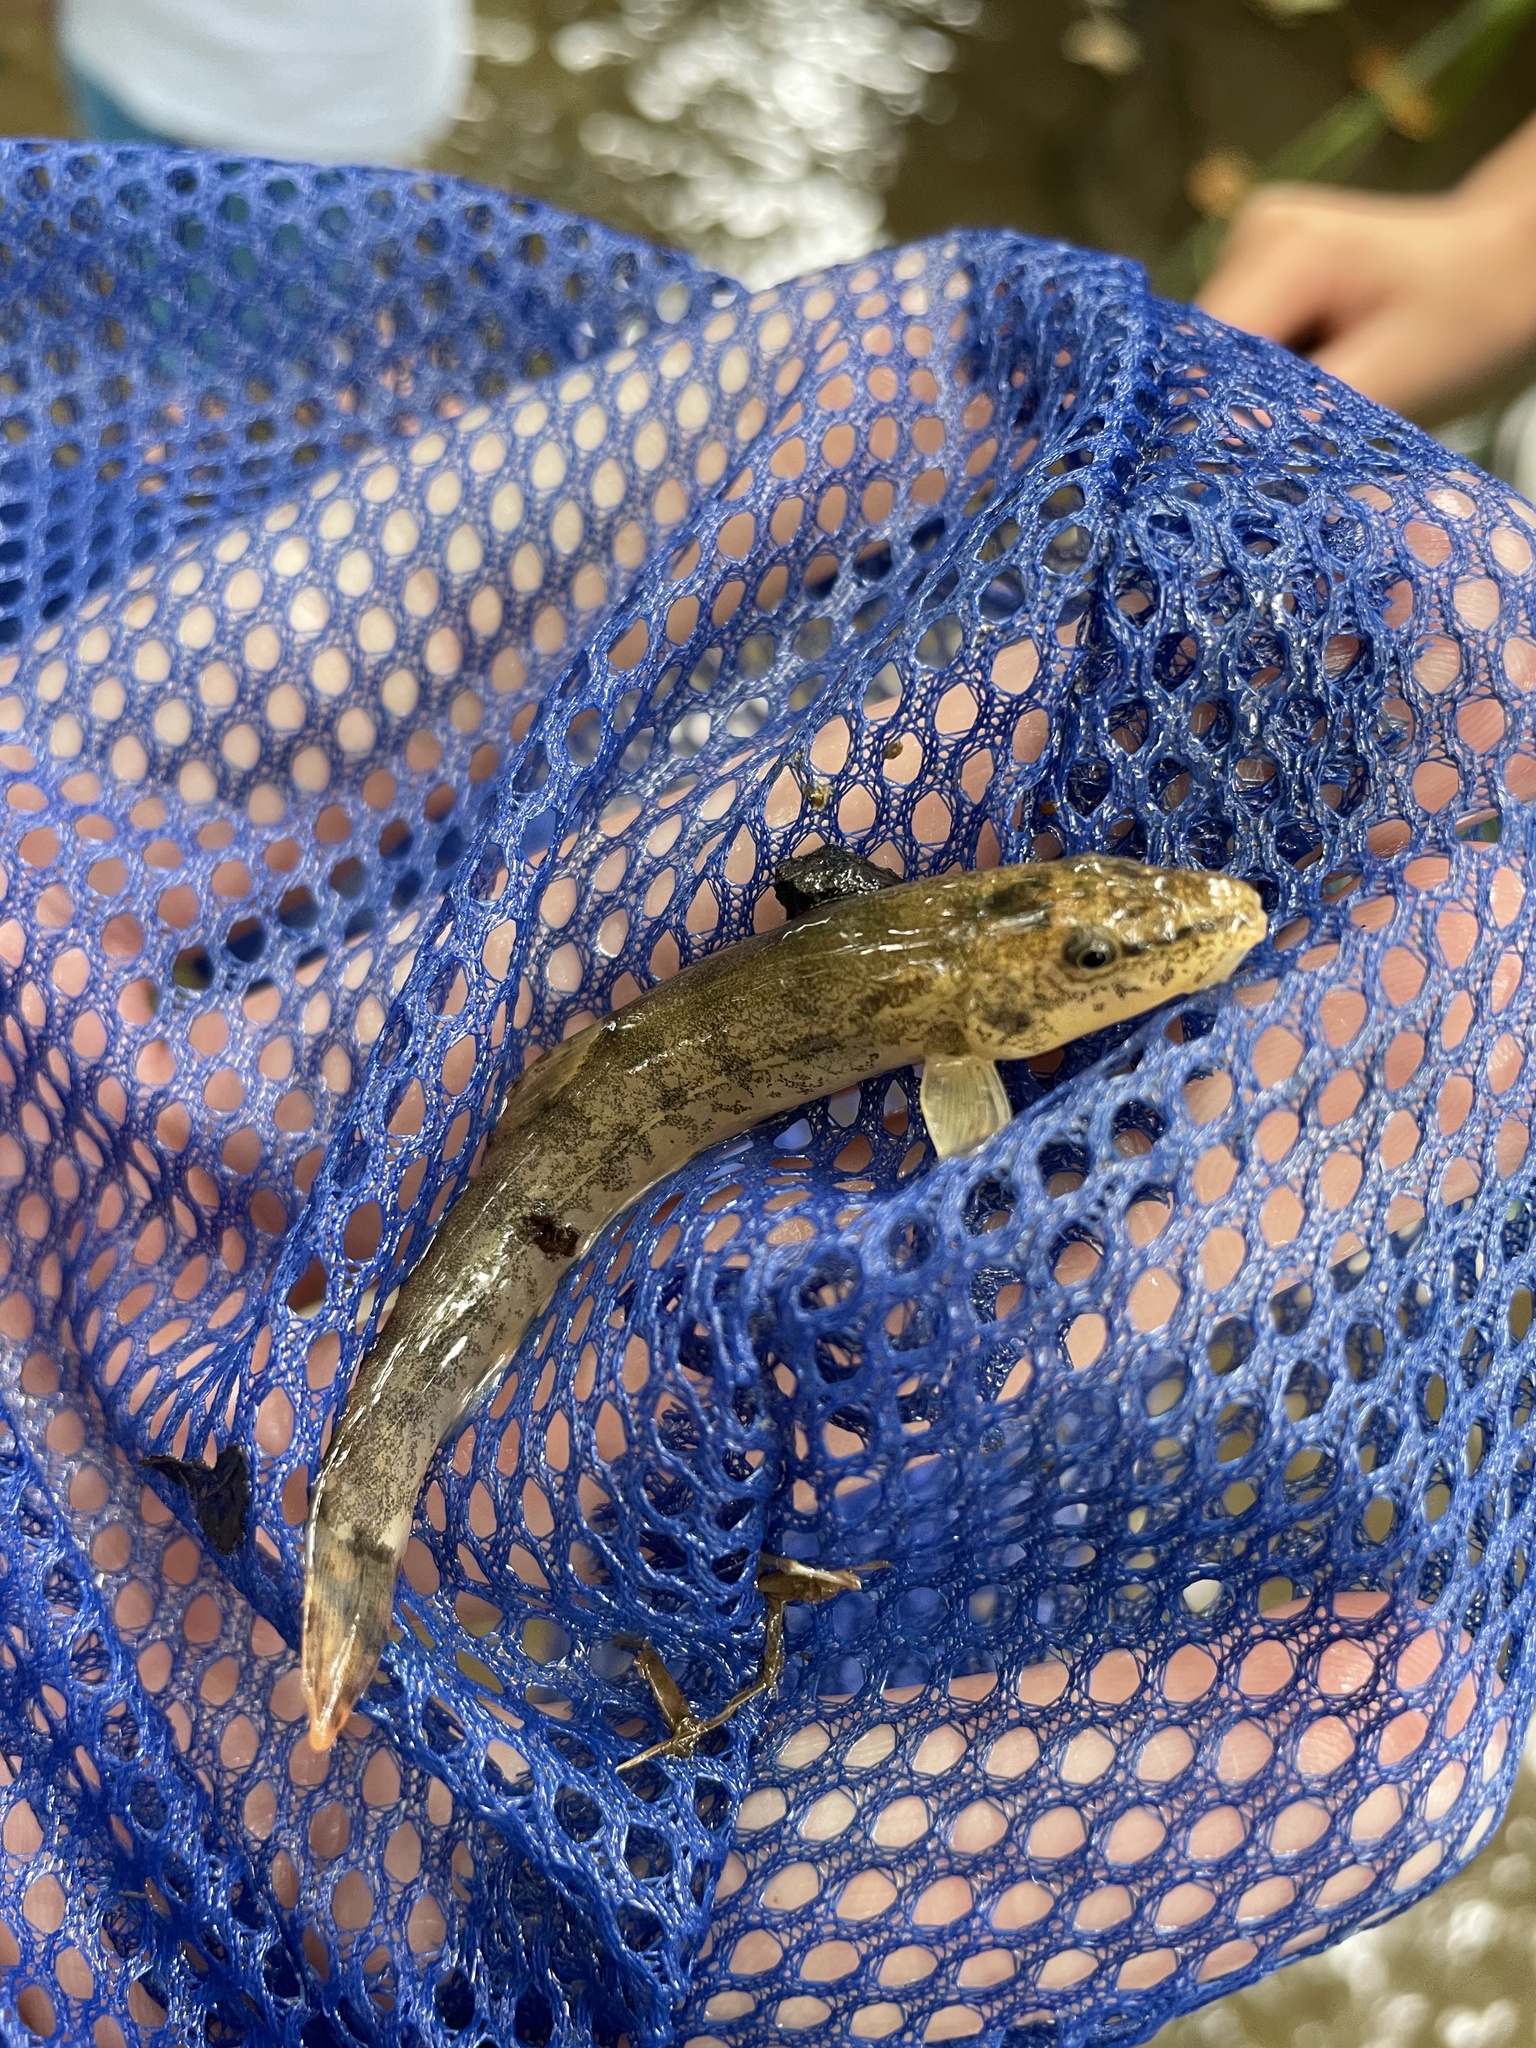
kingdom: Animalia
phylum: Chordata
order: Cypriniformes
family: Nemacheilidae
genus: Barbatula
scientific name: Barbatula barbatula
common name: Stone loach
